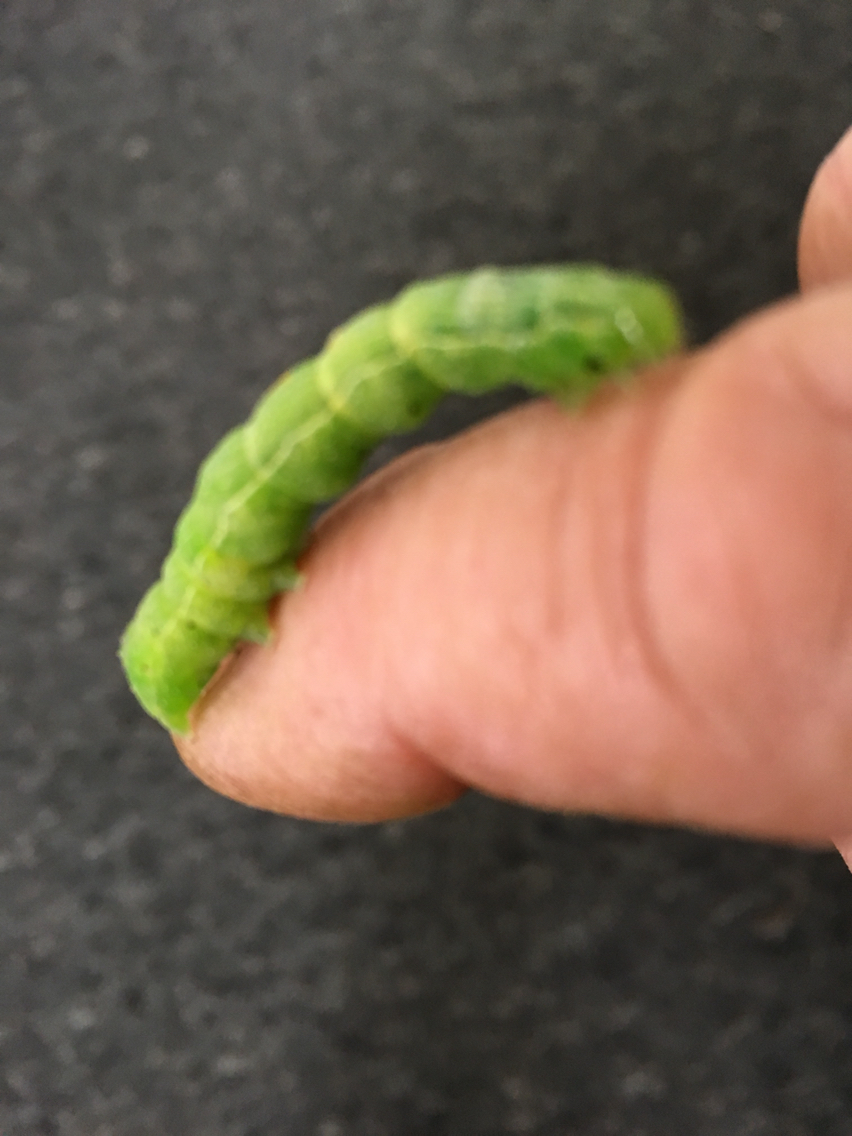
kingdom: Animalia
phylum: Arthropoda
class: Insecta
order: Lepidoptera
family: Pieridae
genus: Pieris
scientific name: Pieris rapae
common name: Small white
